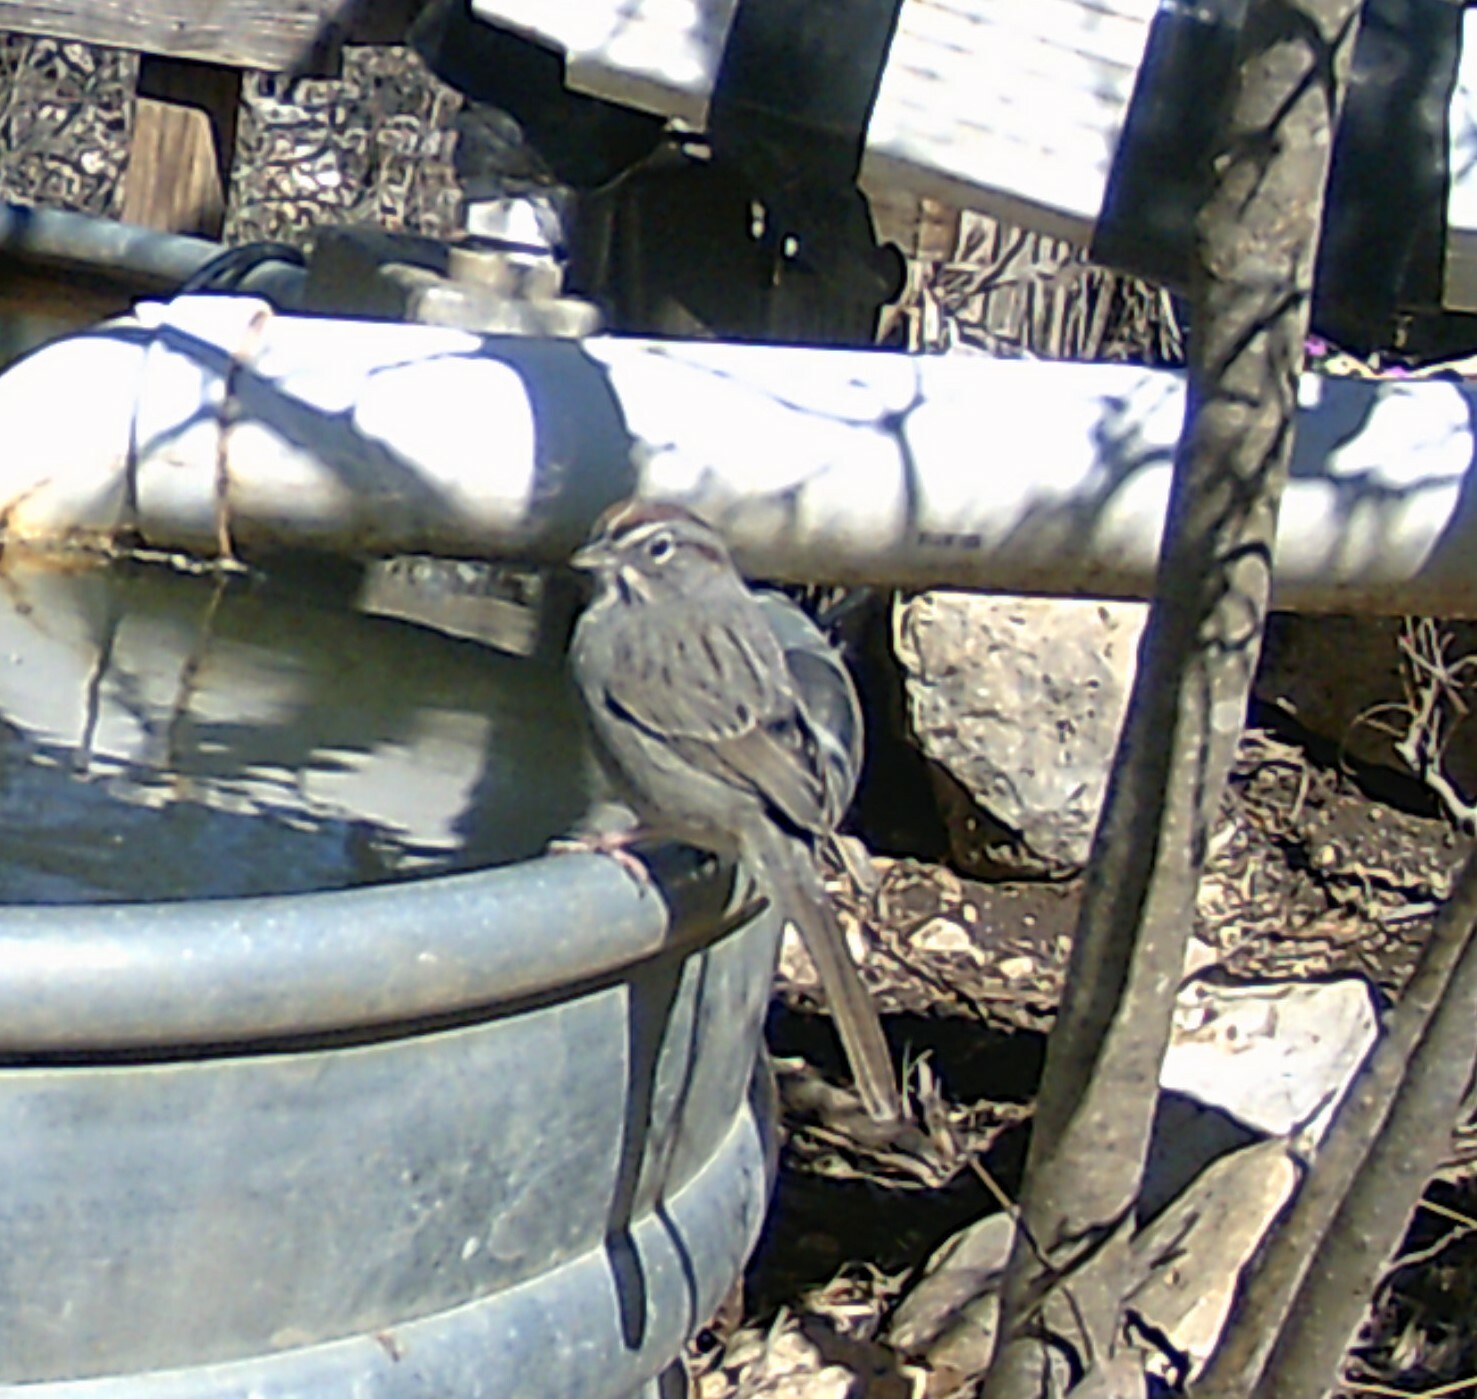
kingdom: Animalia
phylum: Chordata
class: Aves
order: Passeriformes
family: Passerellidae
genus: Aimophila
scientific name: Aimophila ruficeps
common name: Rufous-crowned sparrow
